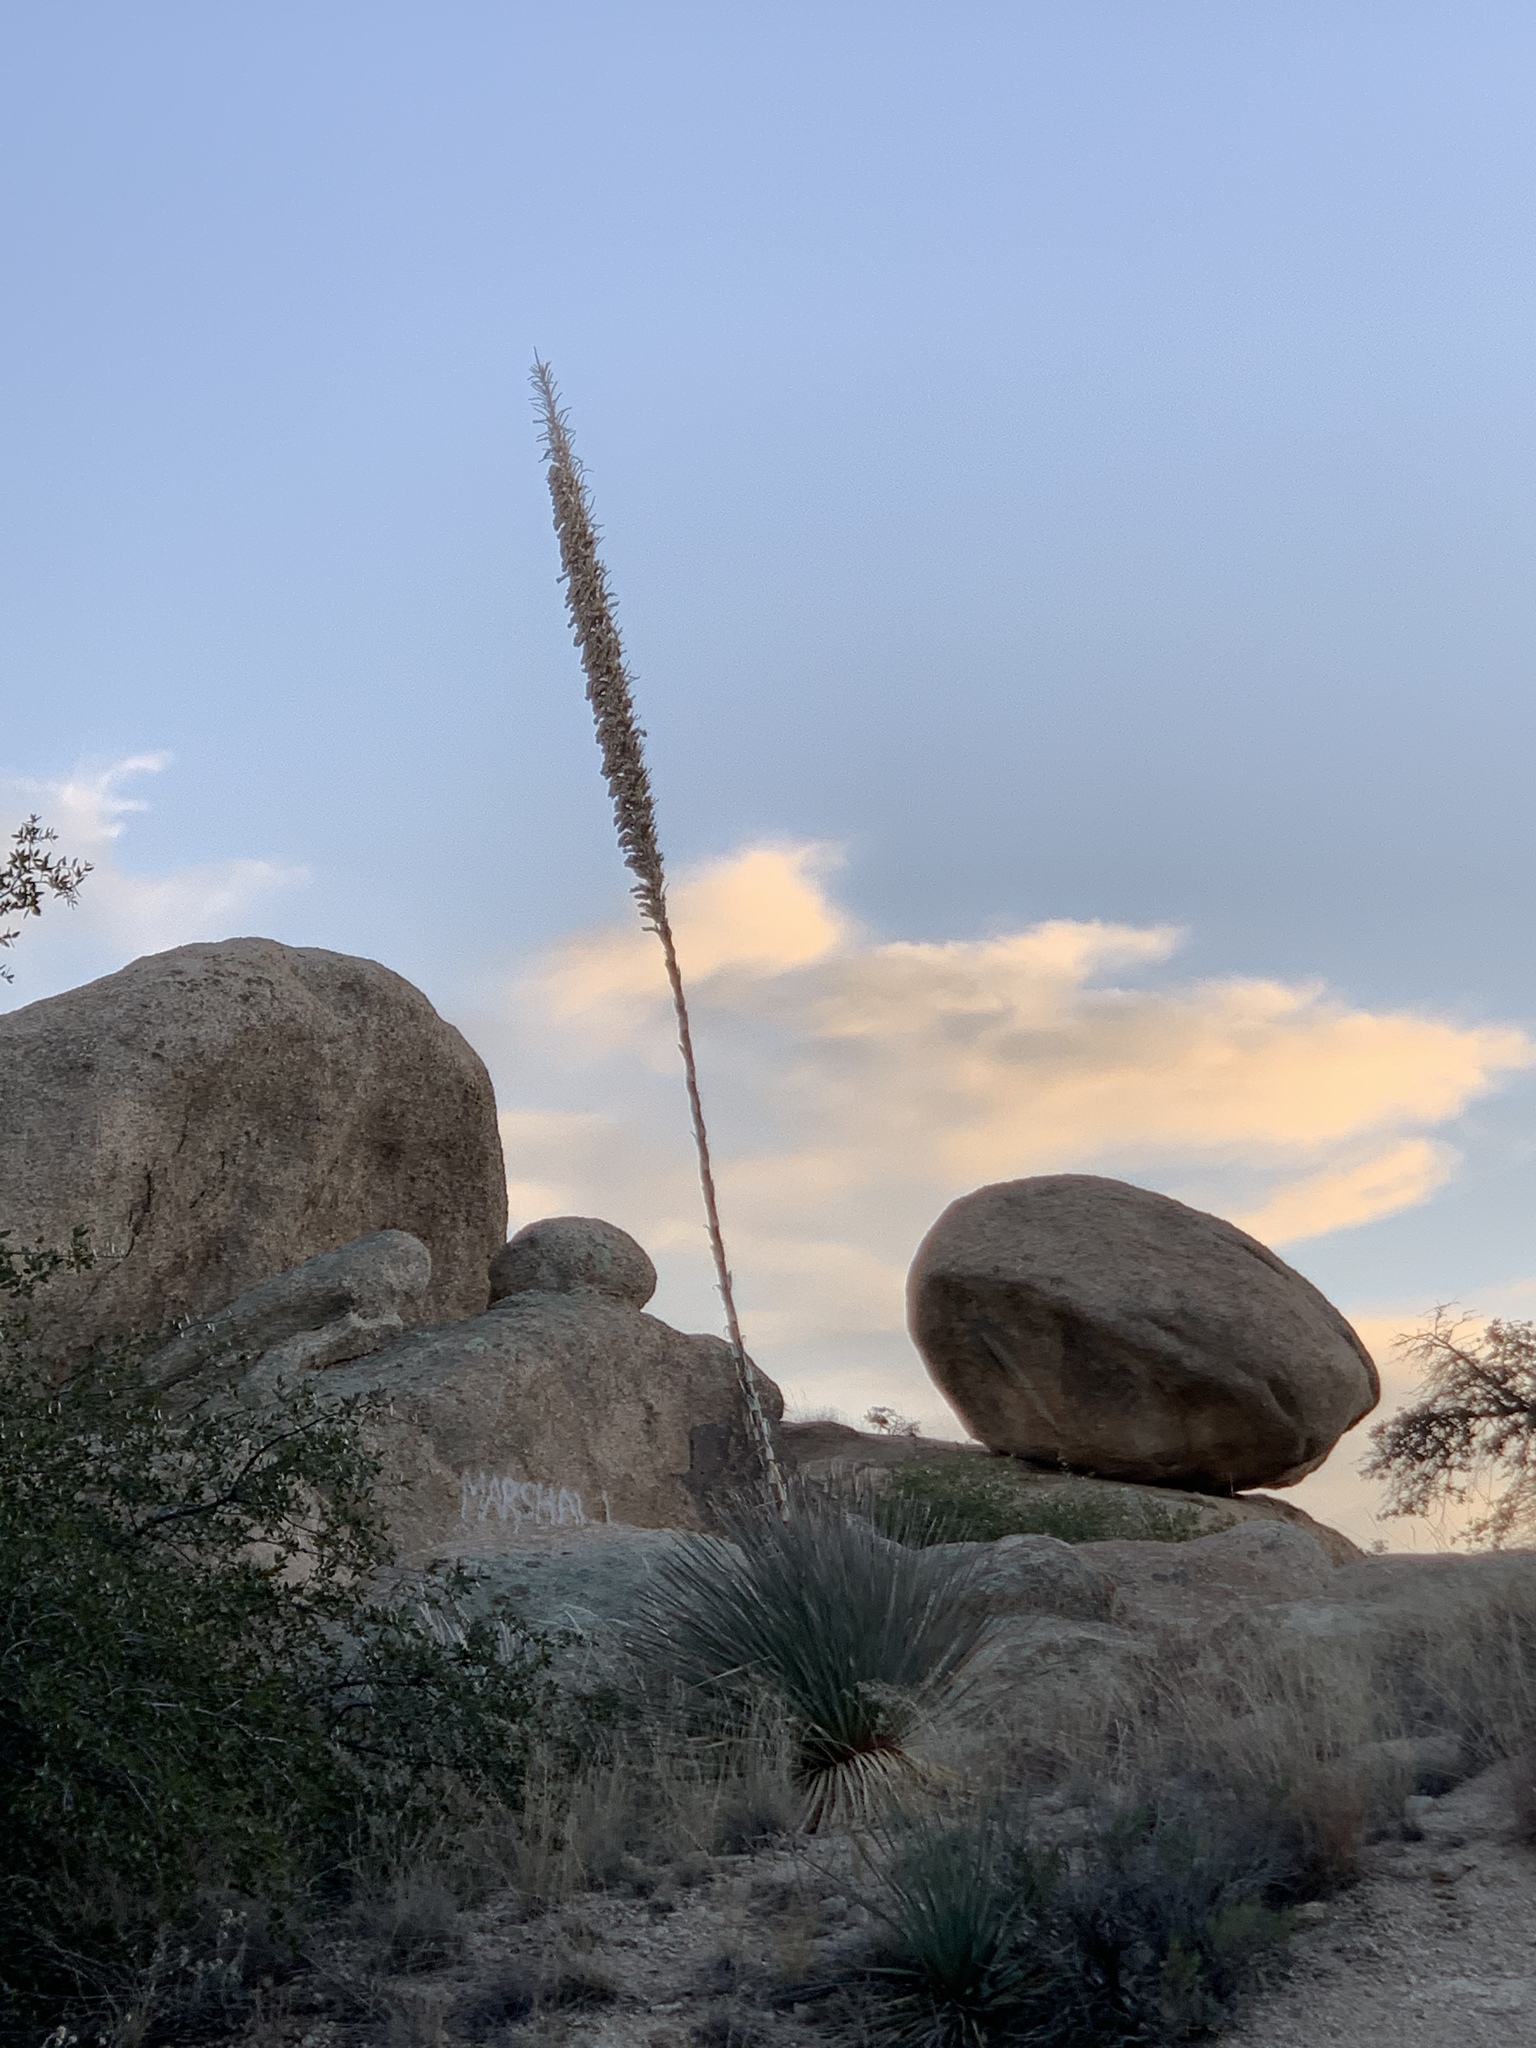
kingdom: Plantae
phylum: Tracheophyta
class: Liliopsida
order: Asparagales
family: Asparagaceae
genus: Dasylirion
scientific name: Dasylirion wheeleri
